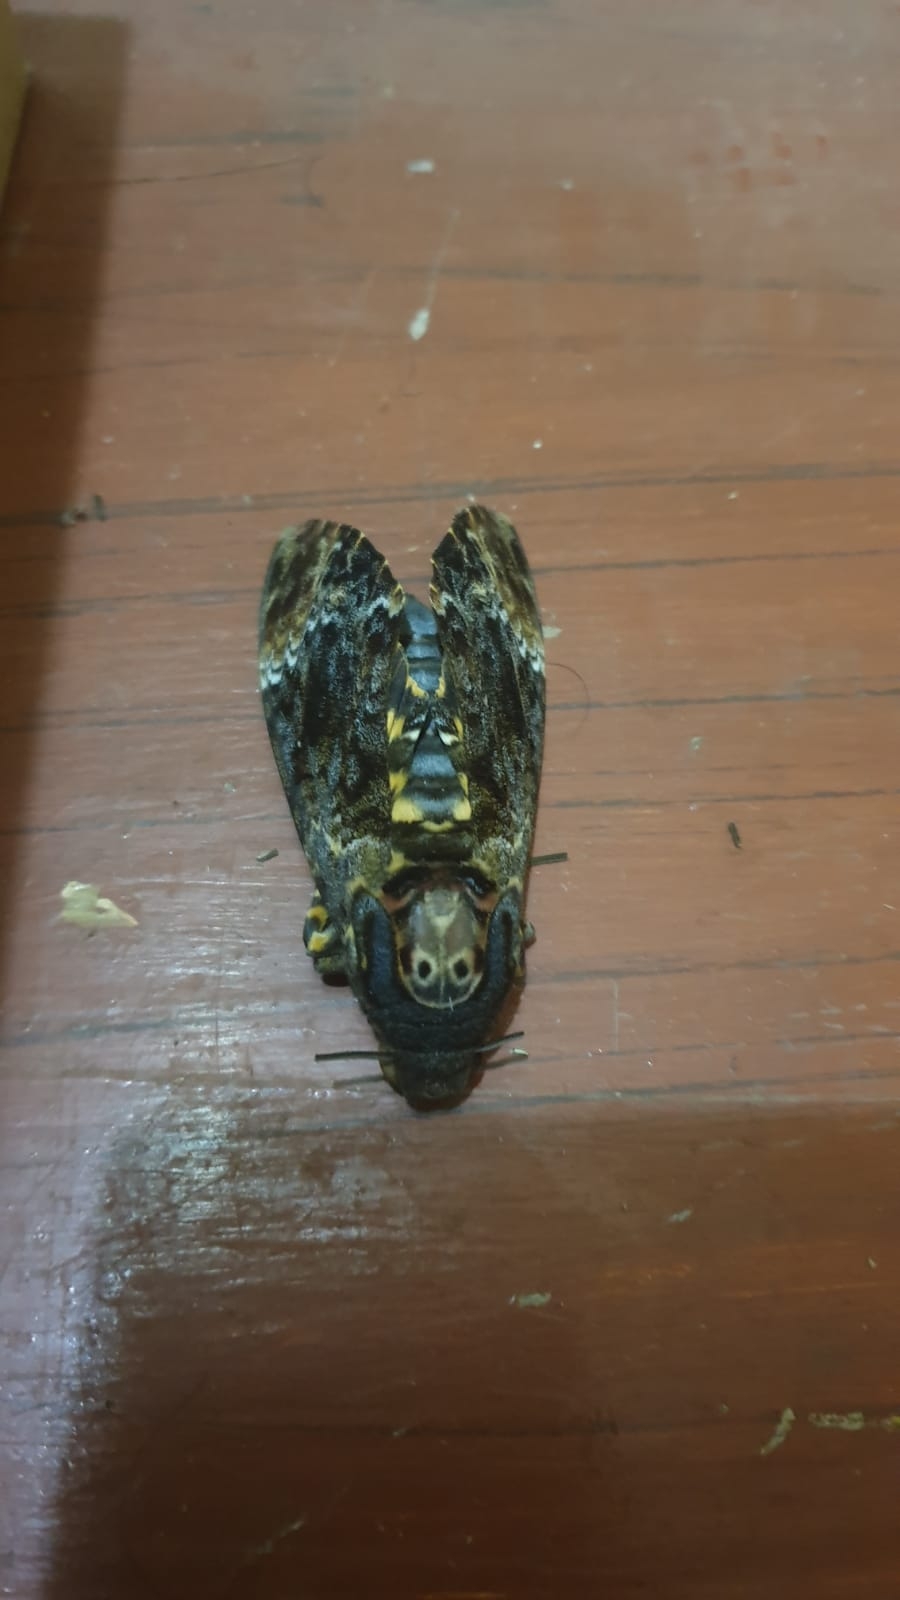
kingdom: Animalia
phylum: Arthropoda
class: Insecta
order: Lepidoptera
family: Sphingidae
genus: Acherontia
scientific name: Acherontia lachesis
